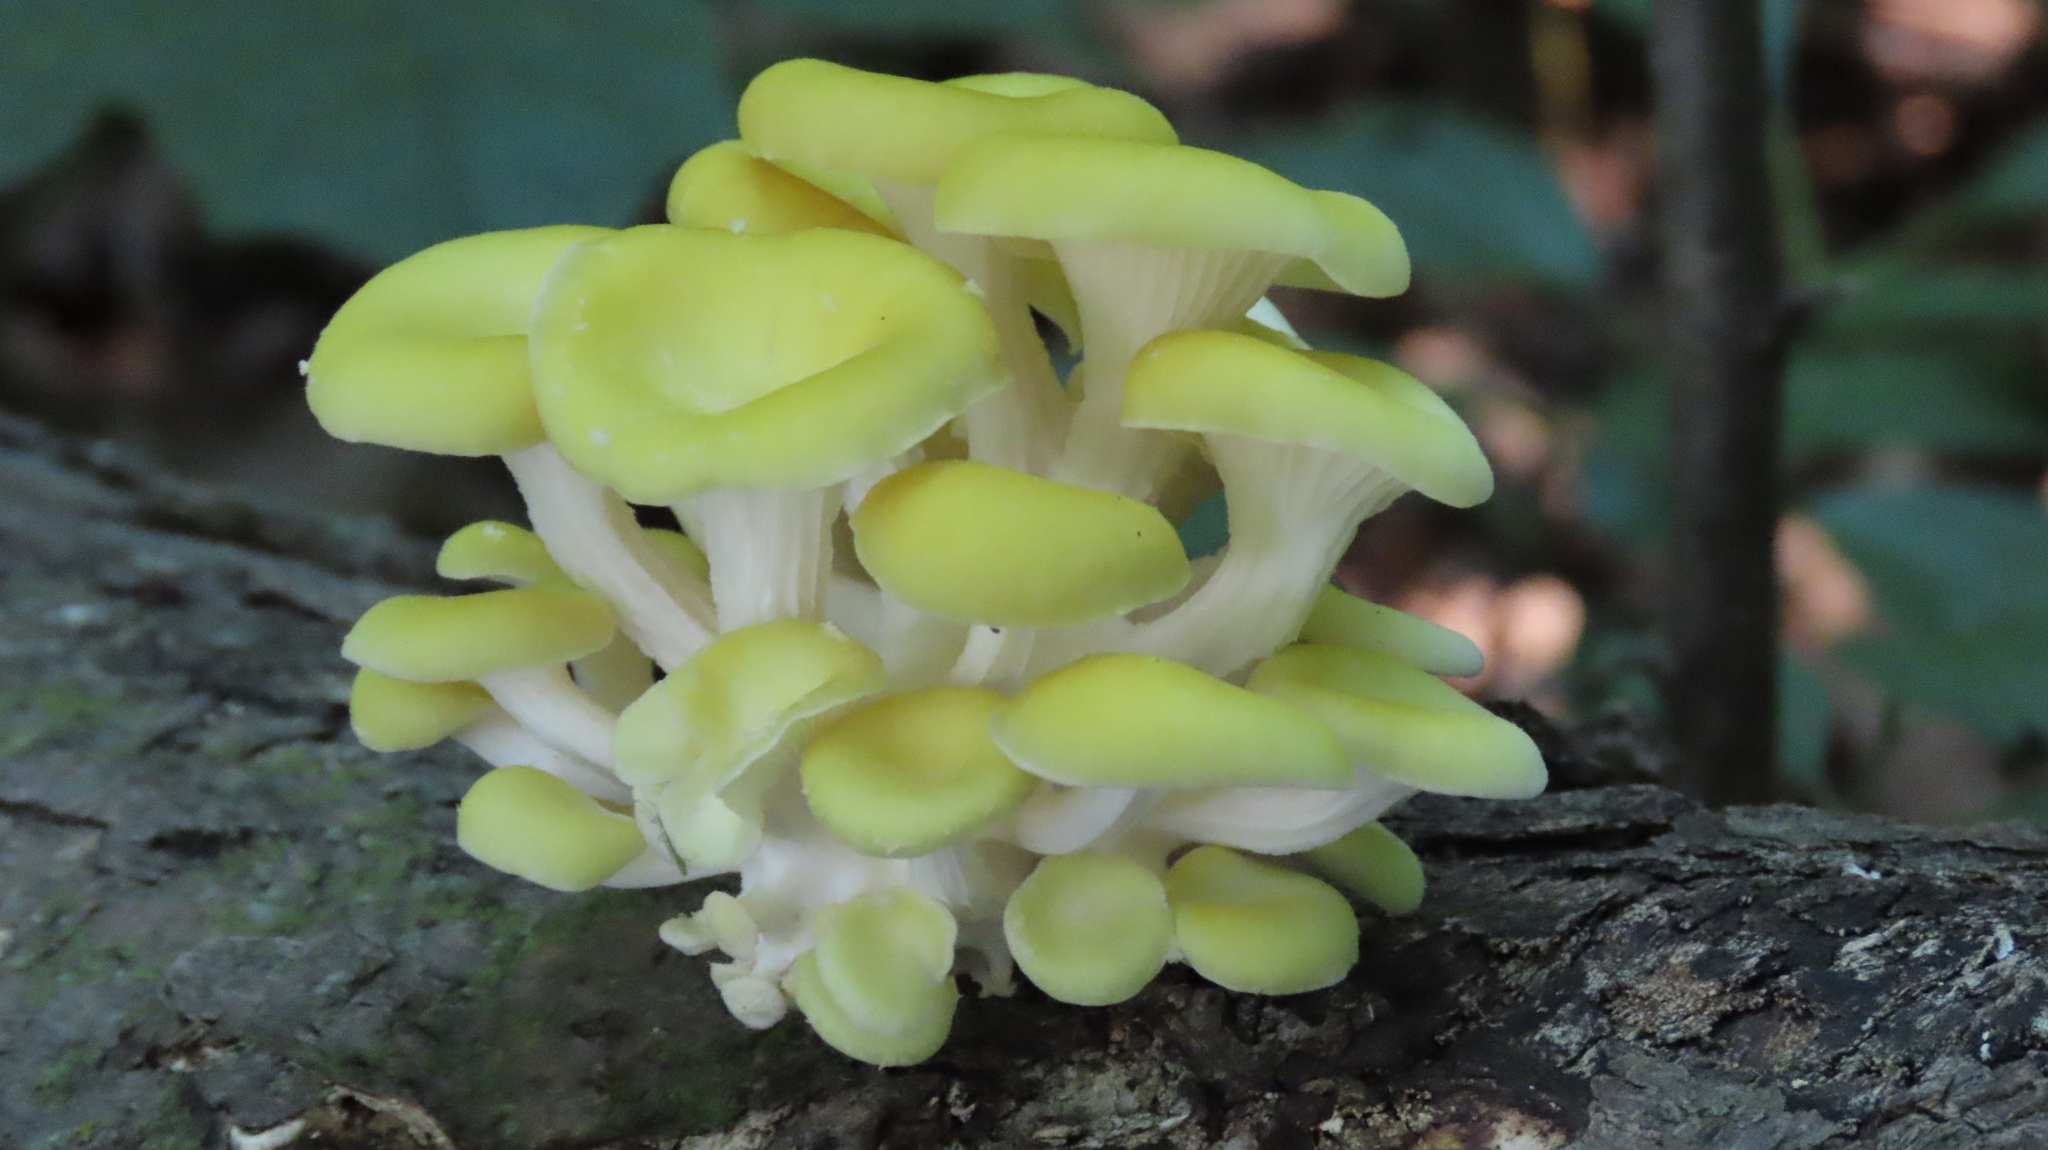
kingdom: Fungi
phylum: Basidiomycota
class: Agaricomycetes
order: Agaricales
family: Pleurotaceae
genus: Pleurotus
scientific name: Pleurotus citrinopileatus
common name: Golden oyster mushroom
